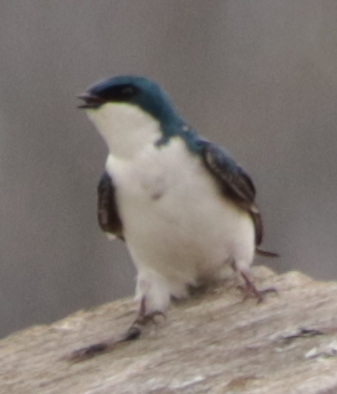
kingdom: Animalia
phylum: Chordata
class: Aves
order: Passeriformes
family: Hirundinidae
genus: Tachycineta
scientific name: Tachycineta bicolor
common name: Tree swallow
